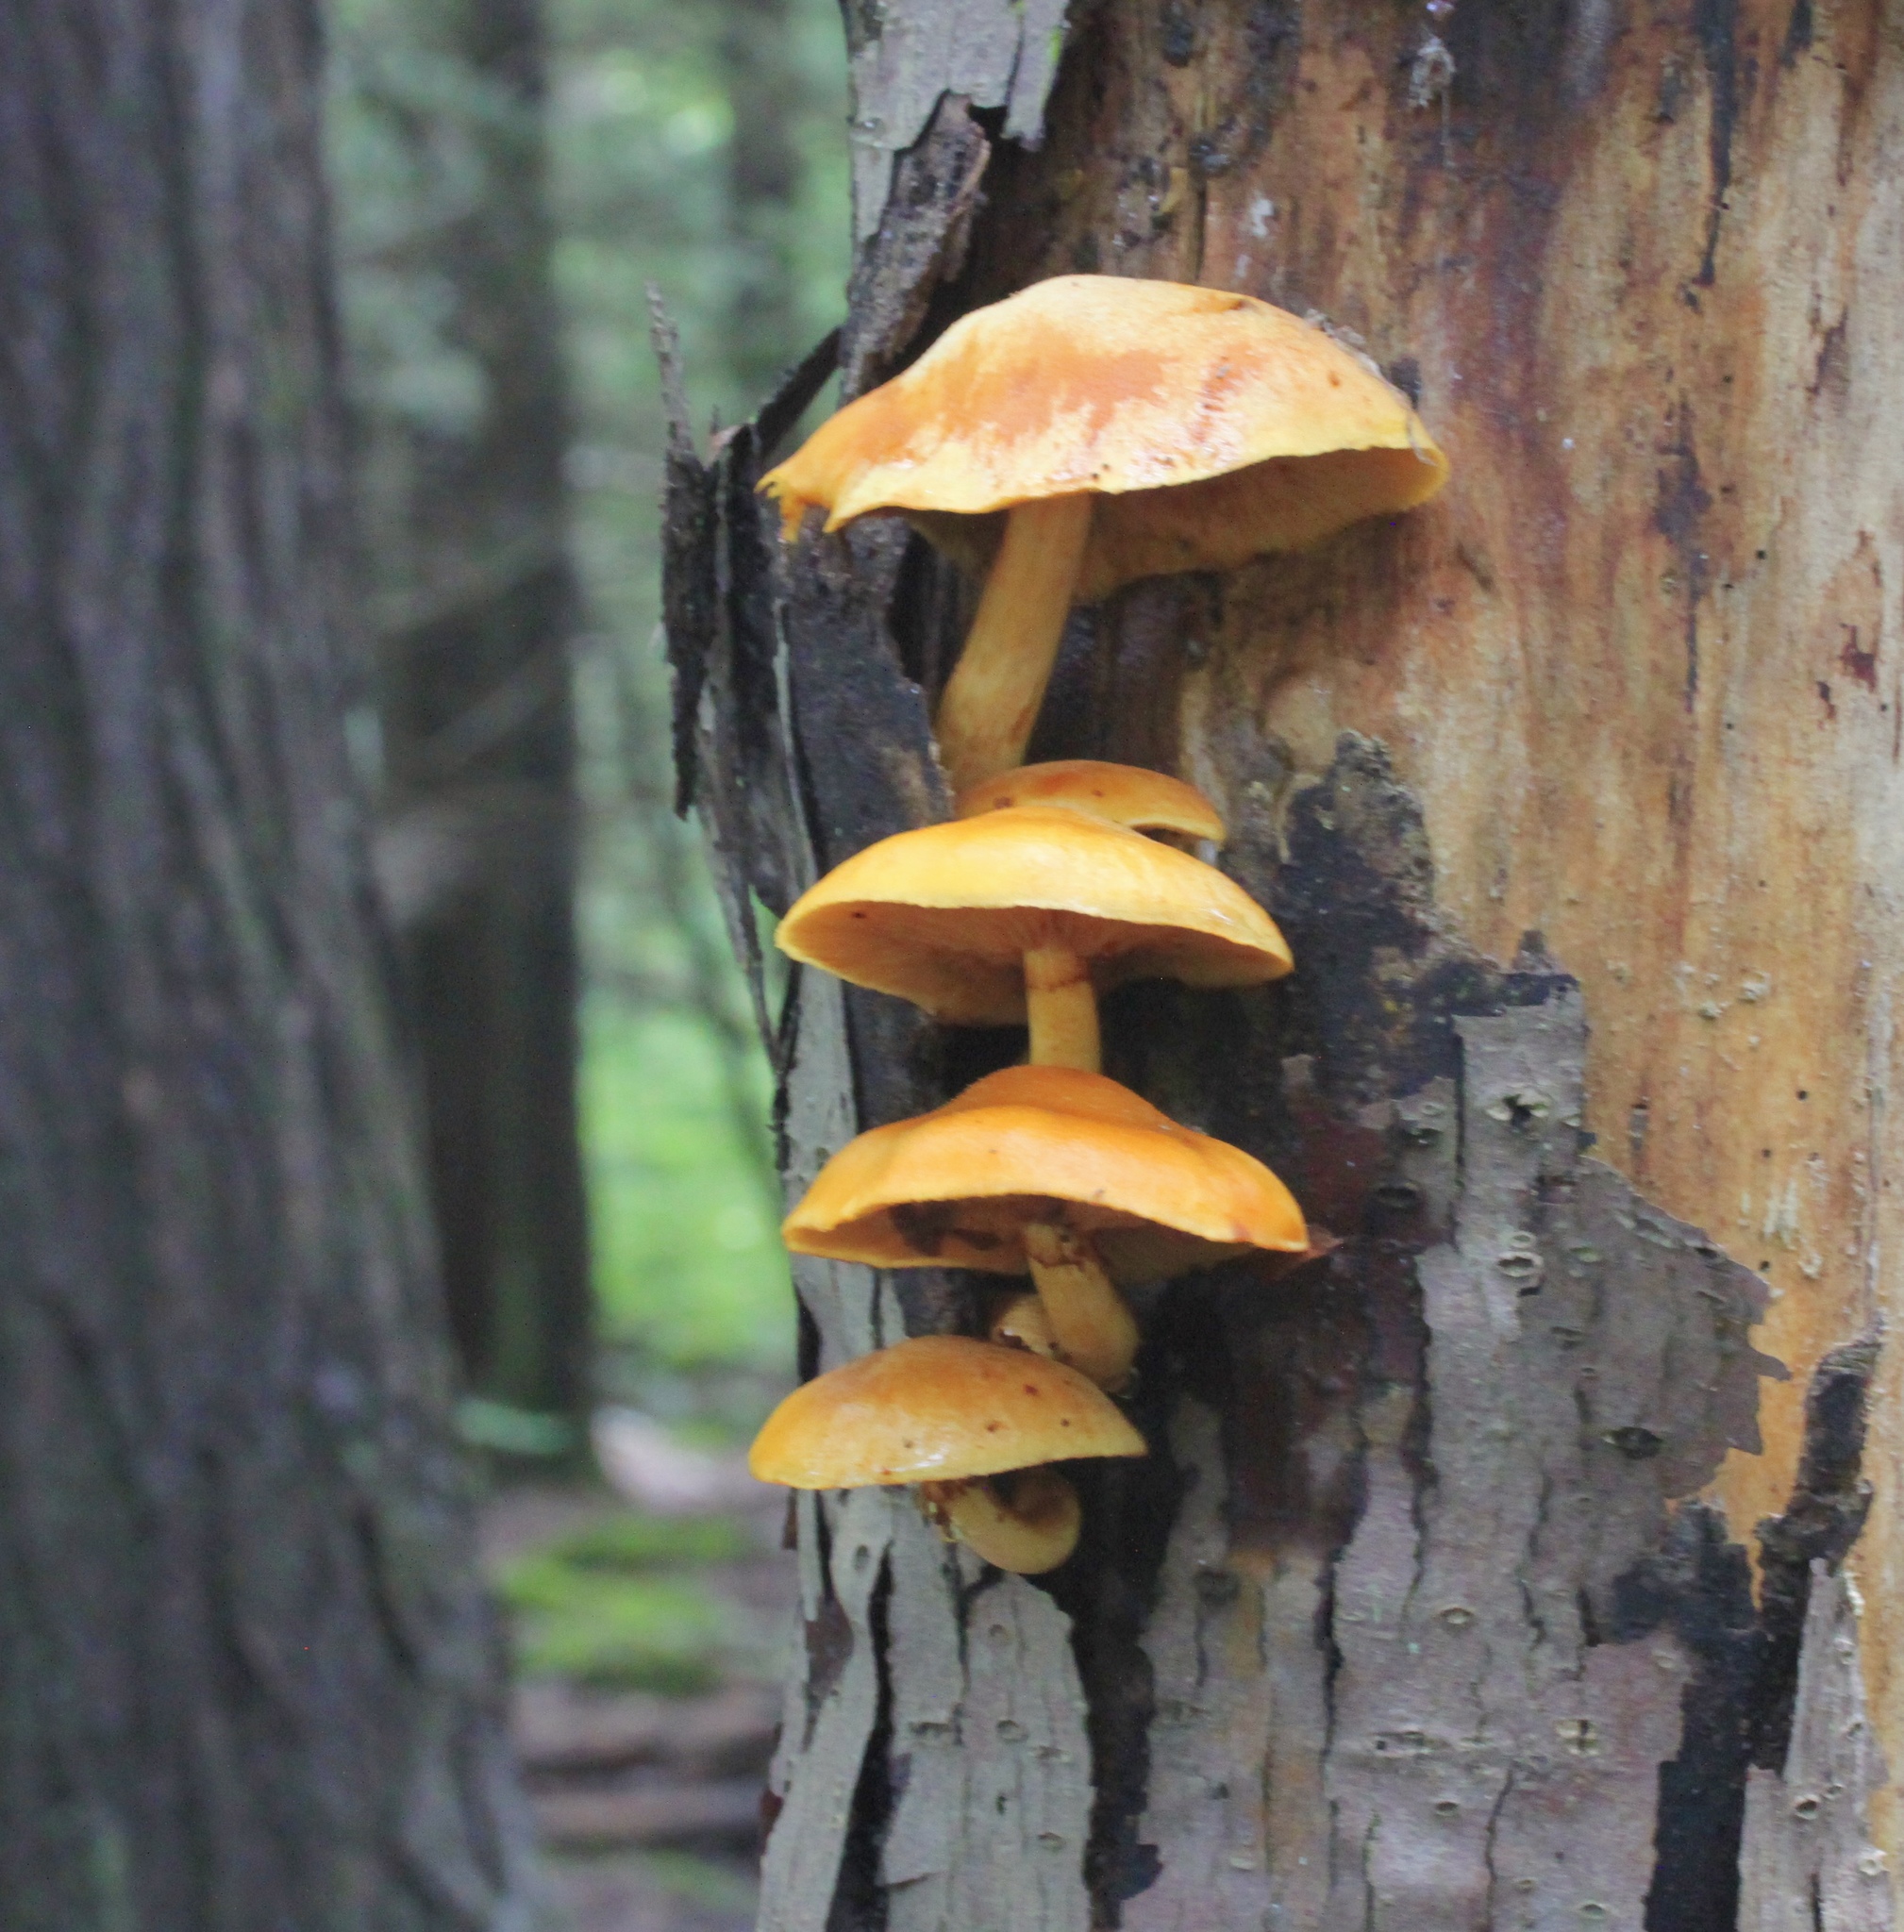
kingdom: Fungi
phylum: Basidiomycota
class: Agaricomycetes
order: Agaricales
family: Hymenogastraceae
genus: Gymnopilus
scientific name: Gymnopilus luteus
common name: Yellow gymnopilus
